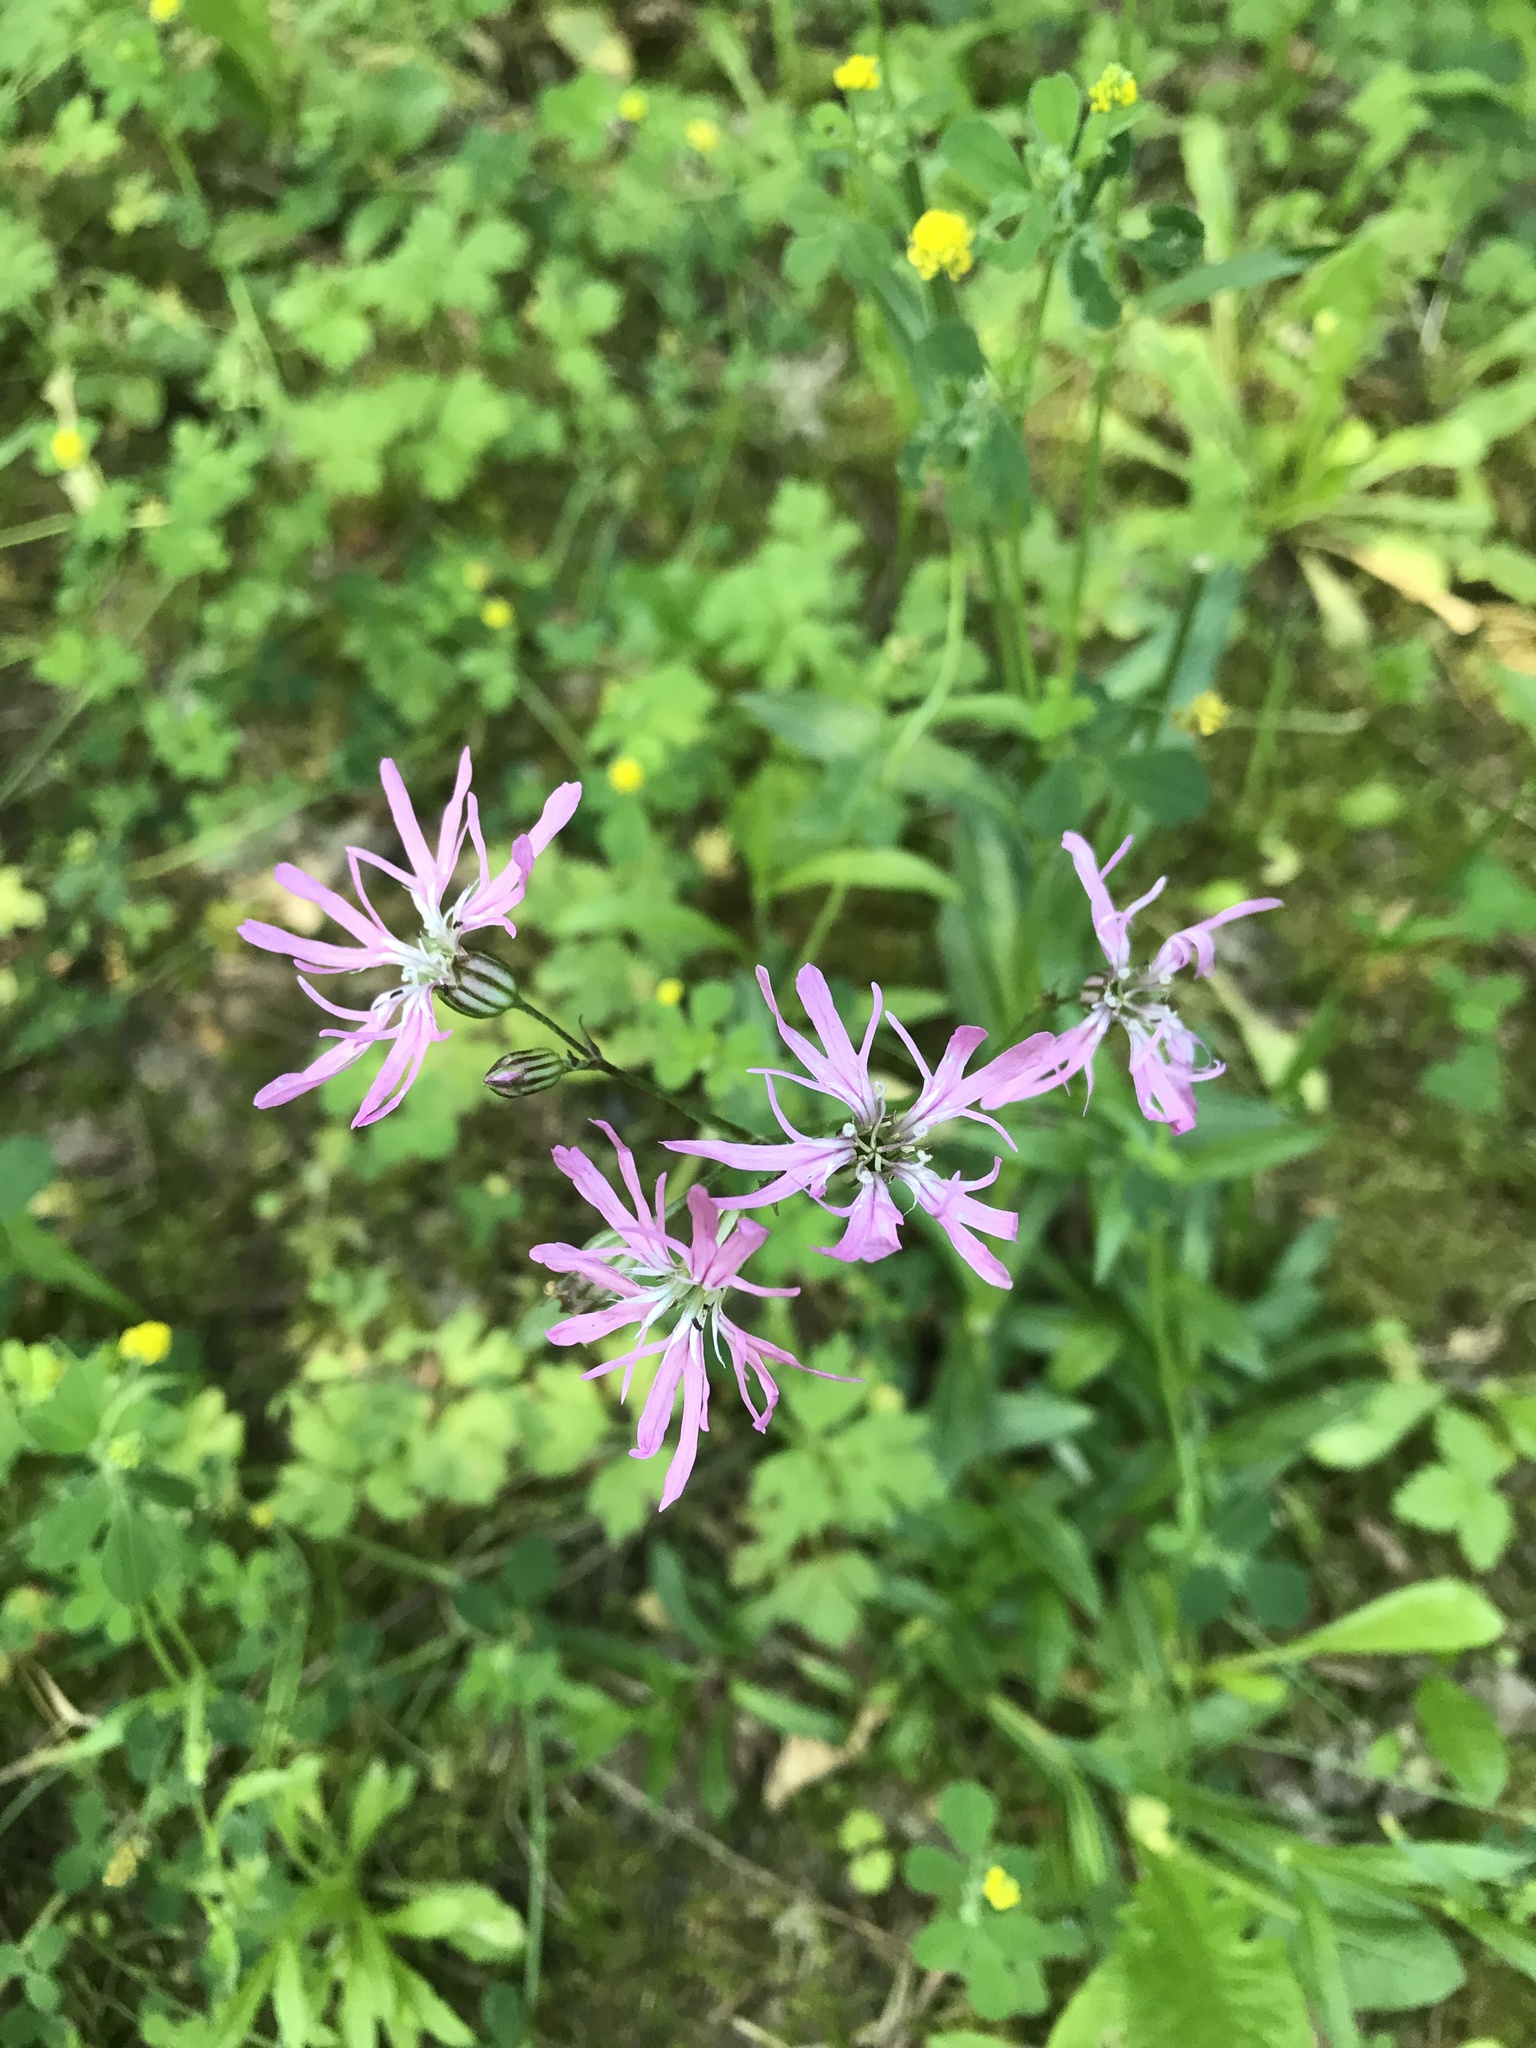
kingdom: Plantae
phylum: Tracheophyta
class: Magnoliopsida
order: Caryophyllales
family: Caryophyllaceae
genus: Silene
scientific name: Silene flos-cuculi
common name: Ragged-robin
